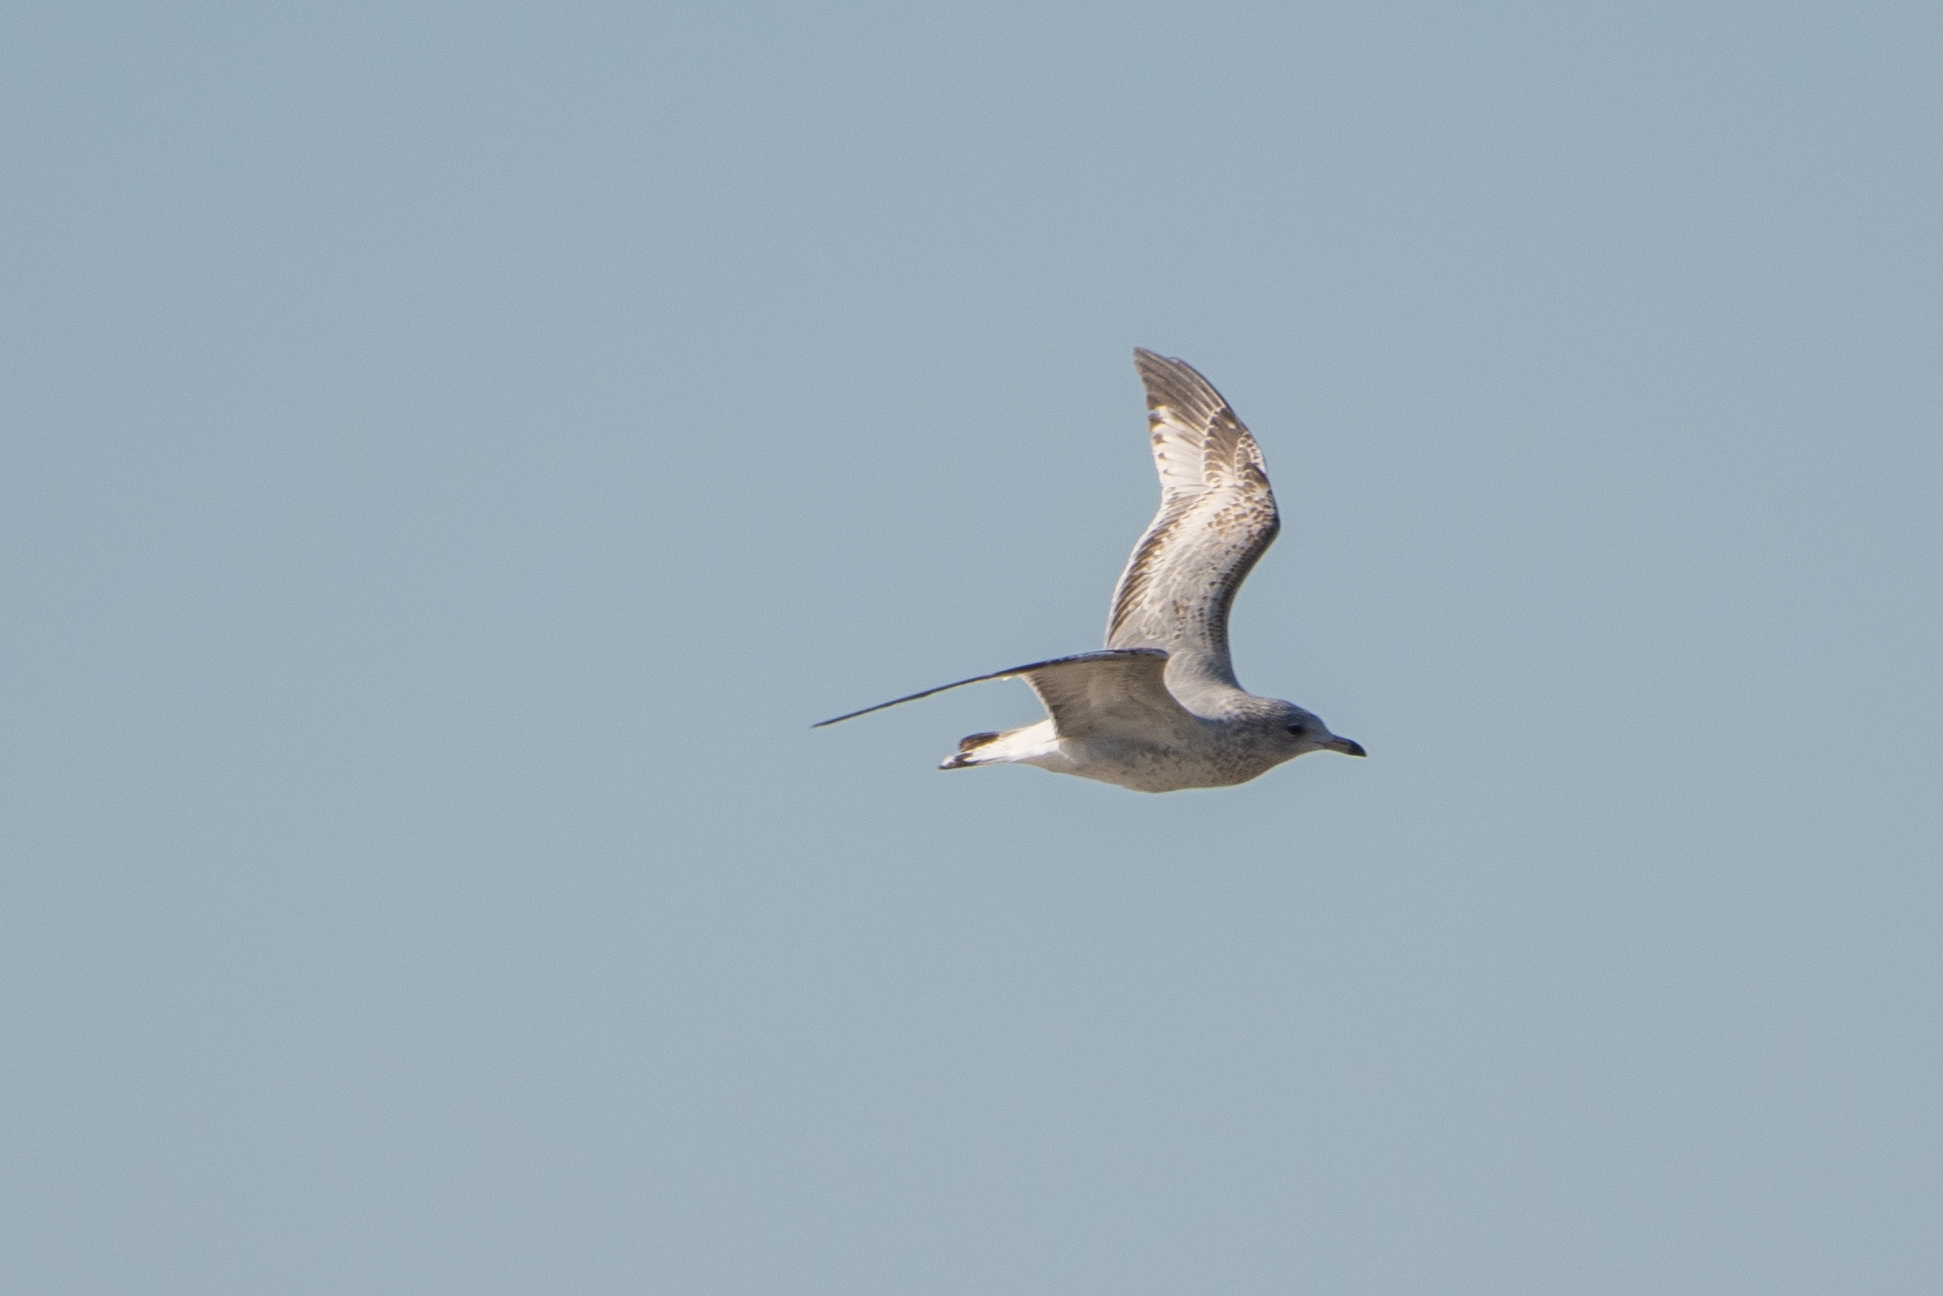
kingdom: Animalia
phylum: Chordata
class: Aves
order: Charadriiformes
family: Laridae
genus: Larus
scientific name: Larus delawarensis
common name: Ring-billed gull
